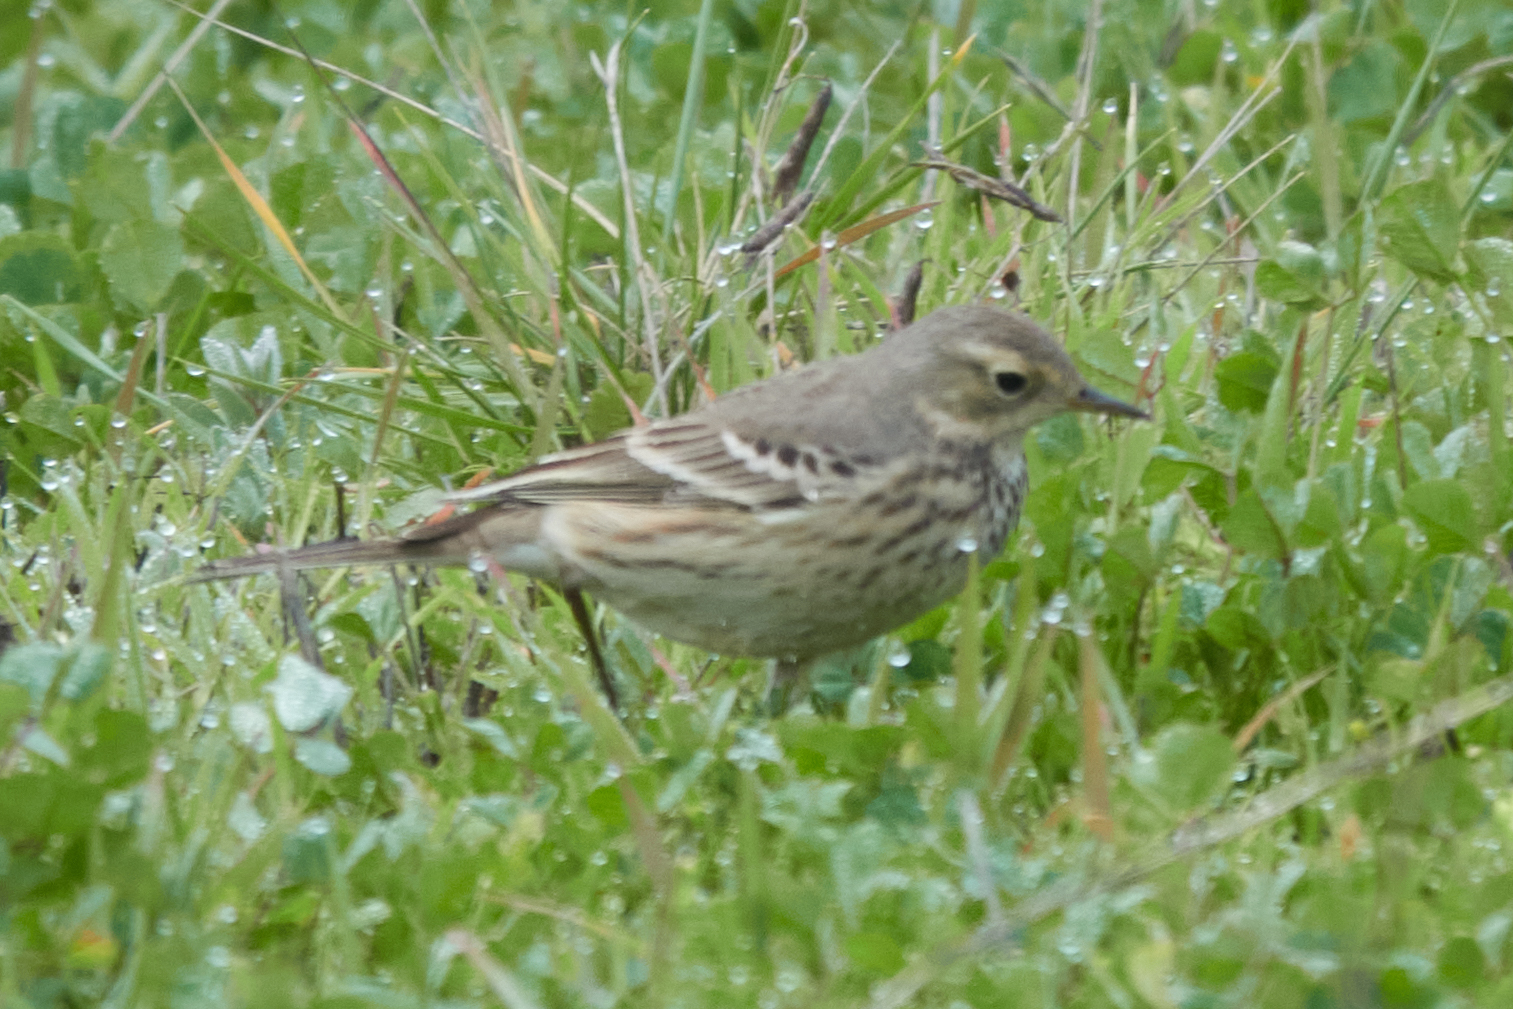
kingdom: Animalia
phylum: Chordata
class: Aves
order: Passeriformes
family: Motacillidae
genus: Anthus
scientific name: Anthus rubescens
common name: Buff-bellied pipit
